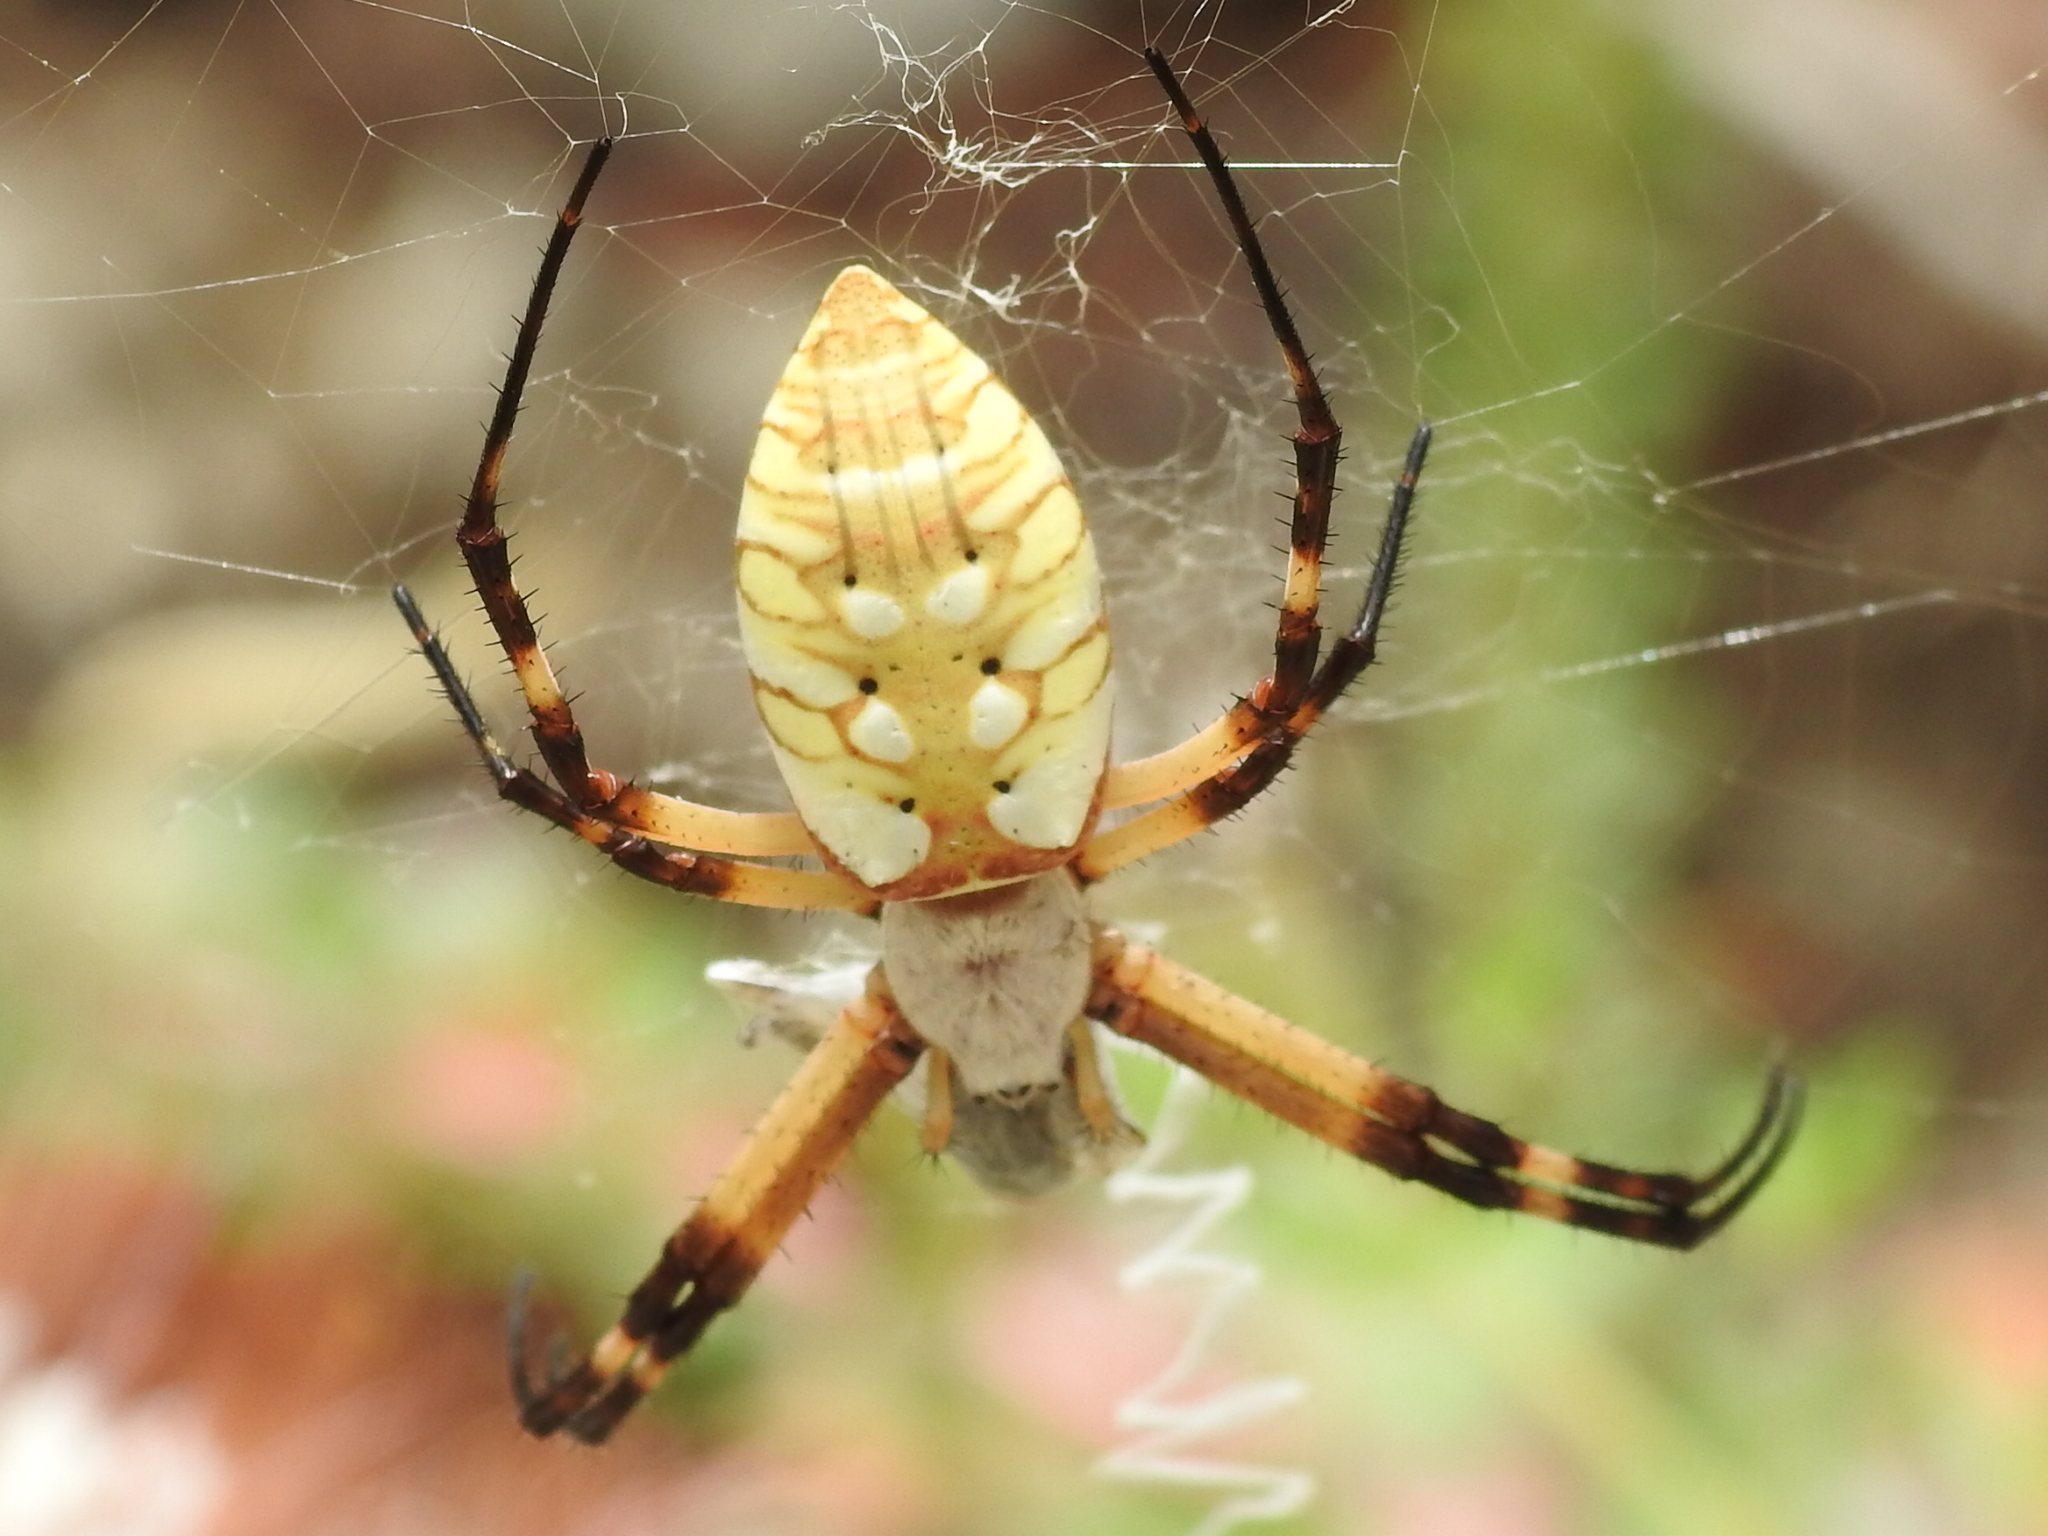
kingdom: Animalia
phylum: Arthropoda
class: Arachnida
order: Araneae
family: Araneidae
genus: Argiope
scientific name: Argiope aurantia
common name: Orb weavers
